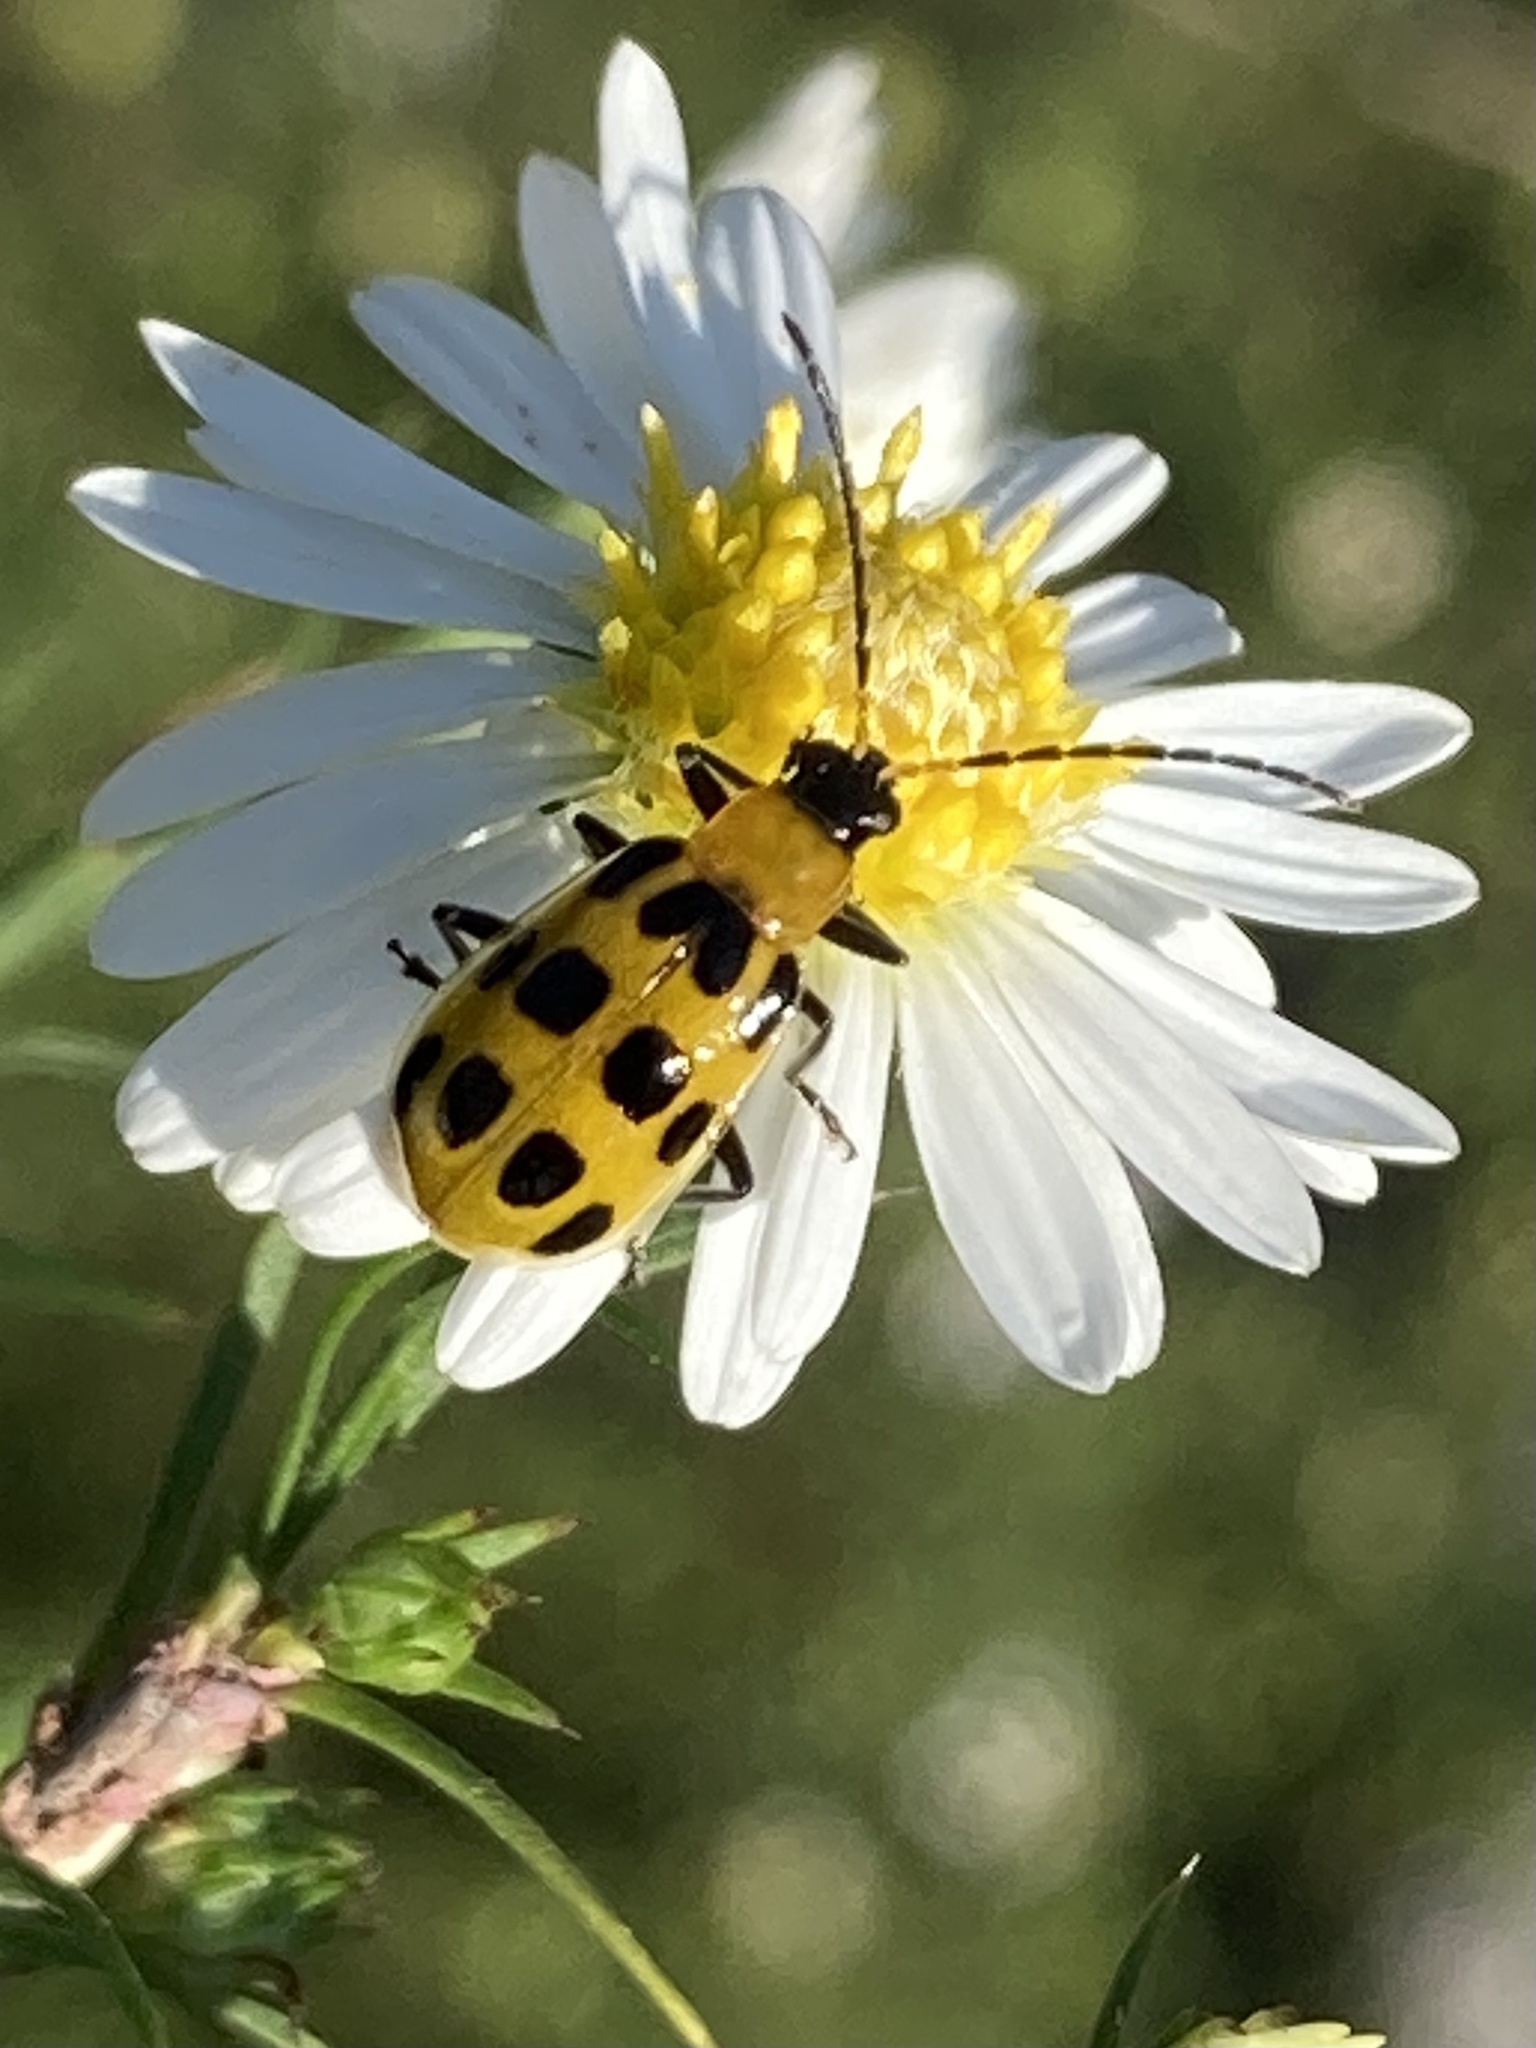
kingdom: Animalia
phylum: Arthropoda
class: Insecta
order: Coleoptera
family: Chrysomelidae
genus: Diabrotica
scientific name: Diabrotica undecimpunctata
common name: Spotted cucumber beetle
